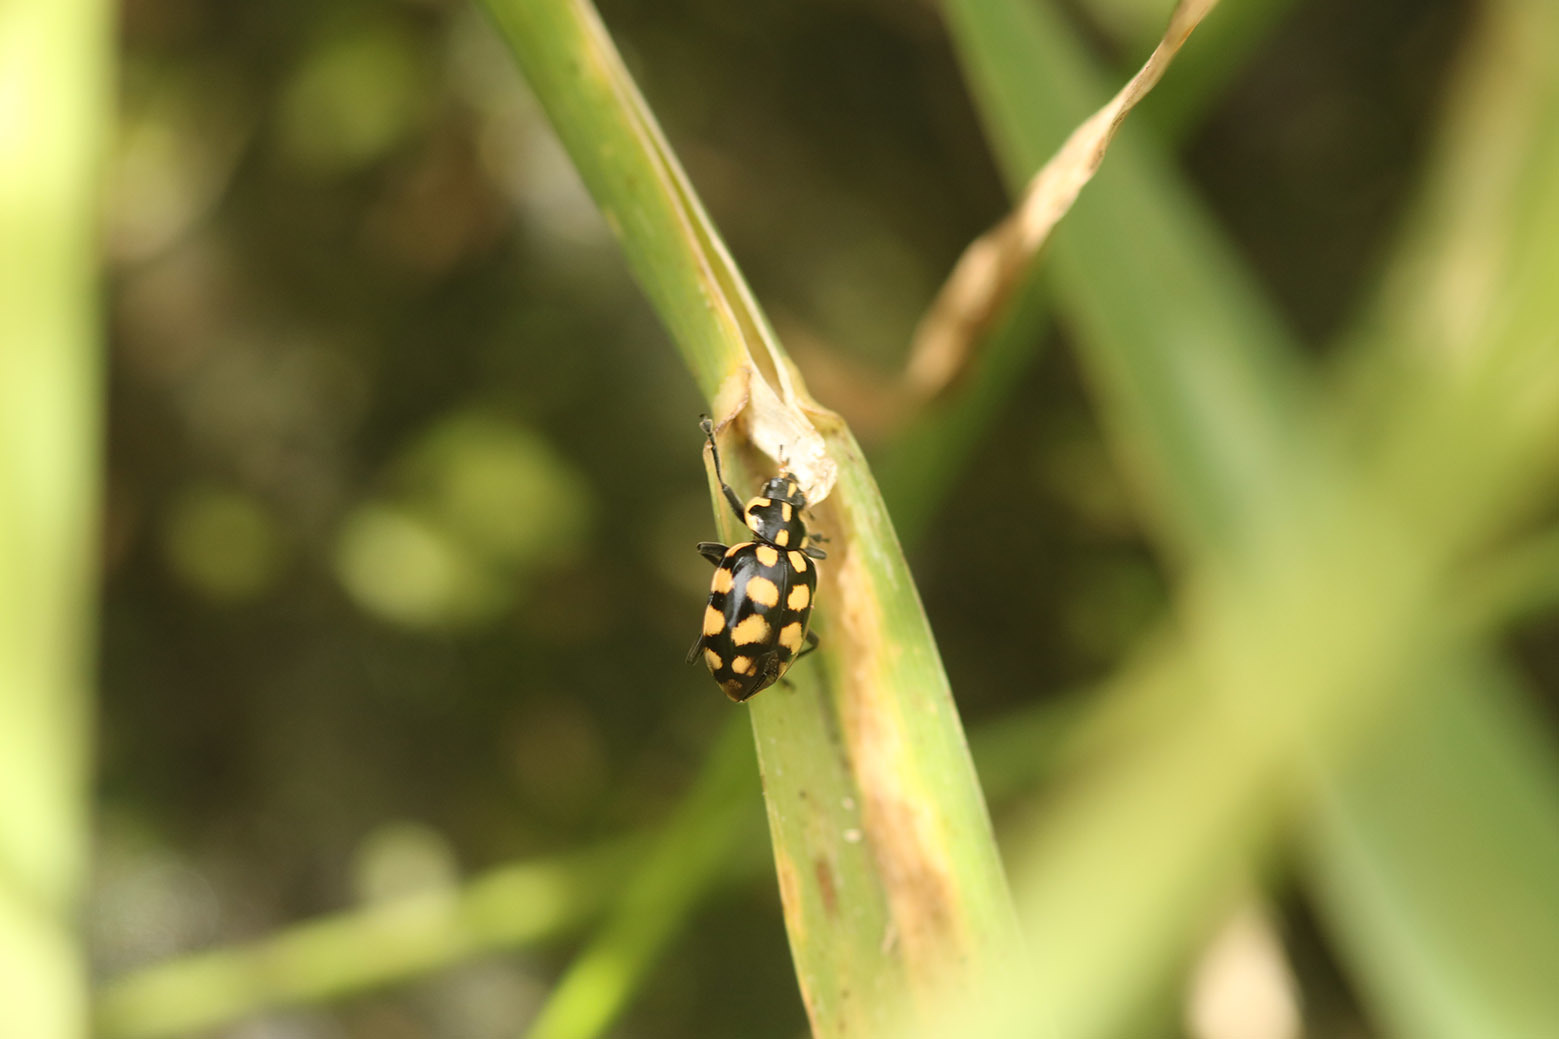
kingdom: Animalia
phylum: Arthropoda
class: Insecta
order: Coleoptera
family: Coccinellidae
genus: Coleomegilla
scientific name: Coleomegilla
